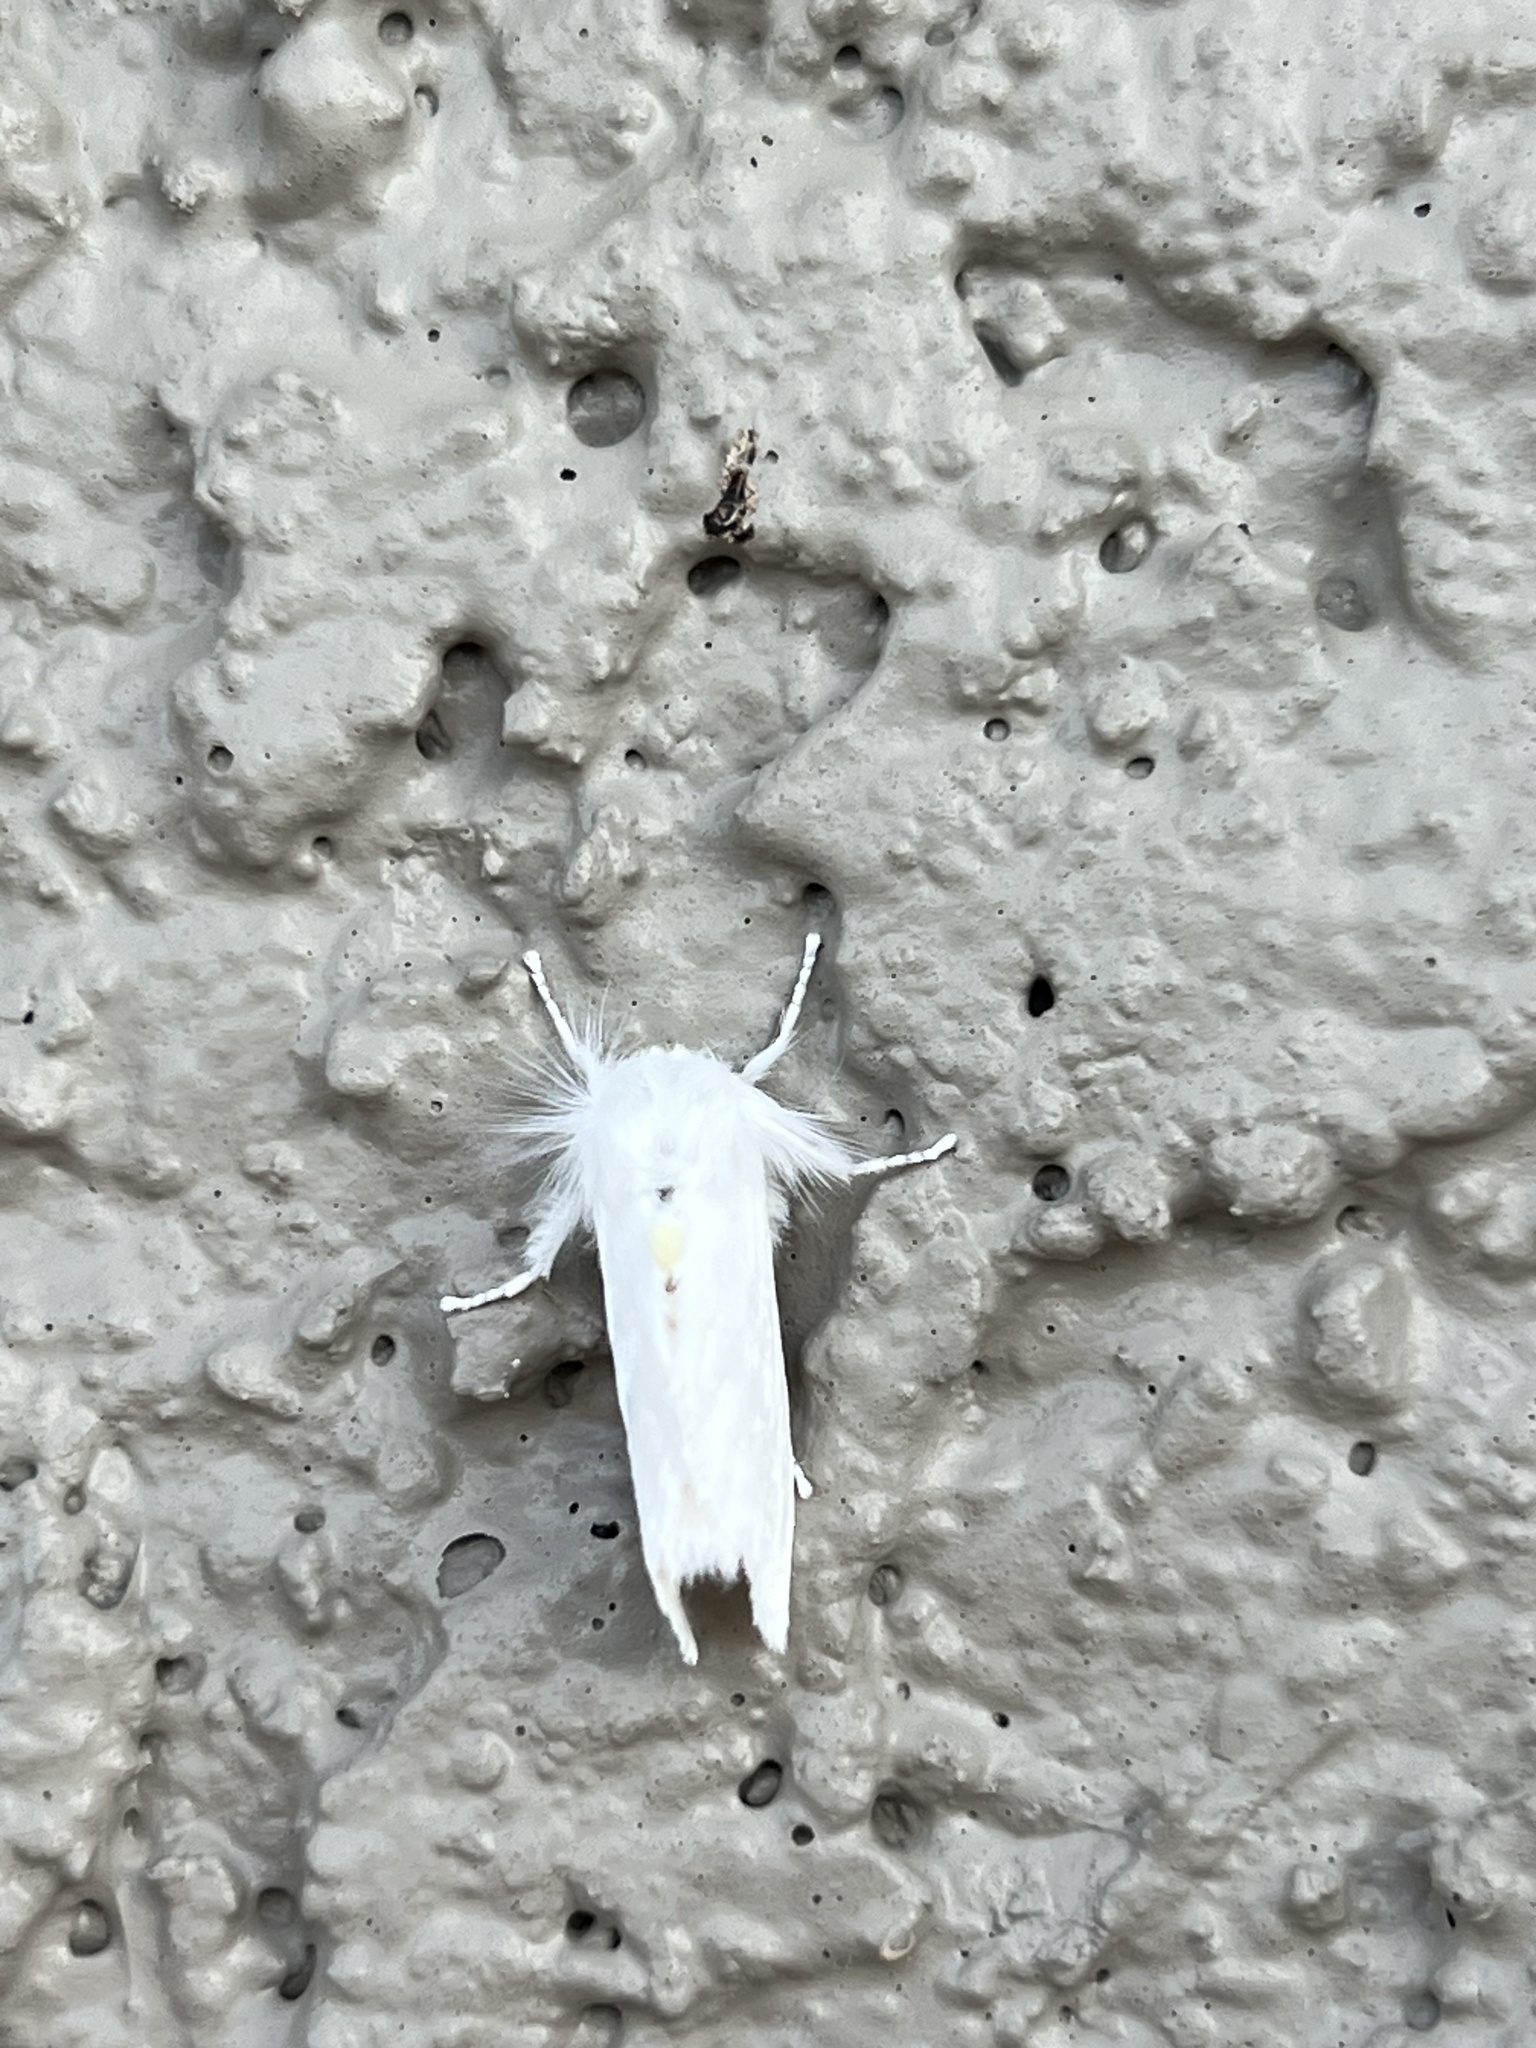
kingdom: Animalia
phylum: Arthropoda
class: Insecta
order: Lepidoptera
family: Megalopygidae
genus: Norape
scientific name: Norape sorpresa
